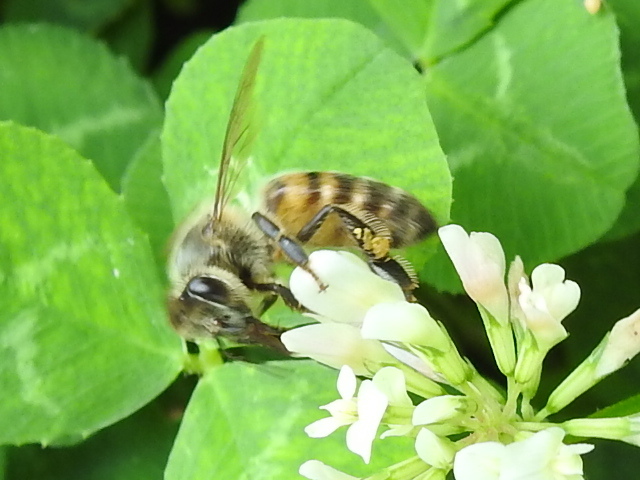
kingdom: Animalia
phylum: Arthropoda
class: Insecta
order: Hymenoptera
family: Apidae
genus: Apis
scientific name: Apis mellifera
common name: Honey bee
